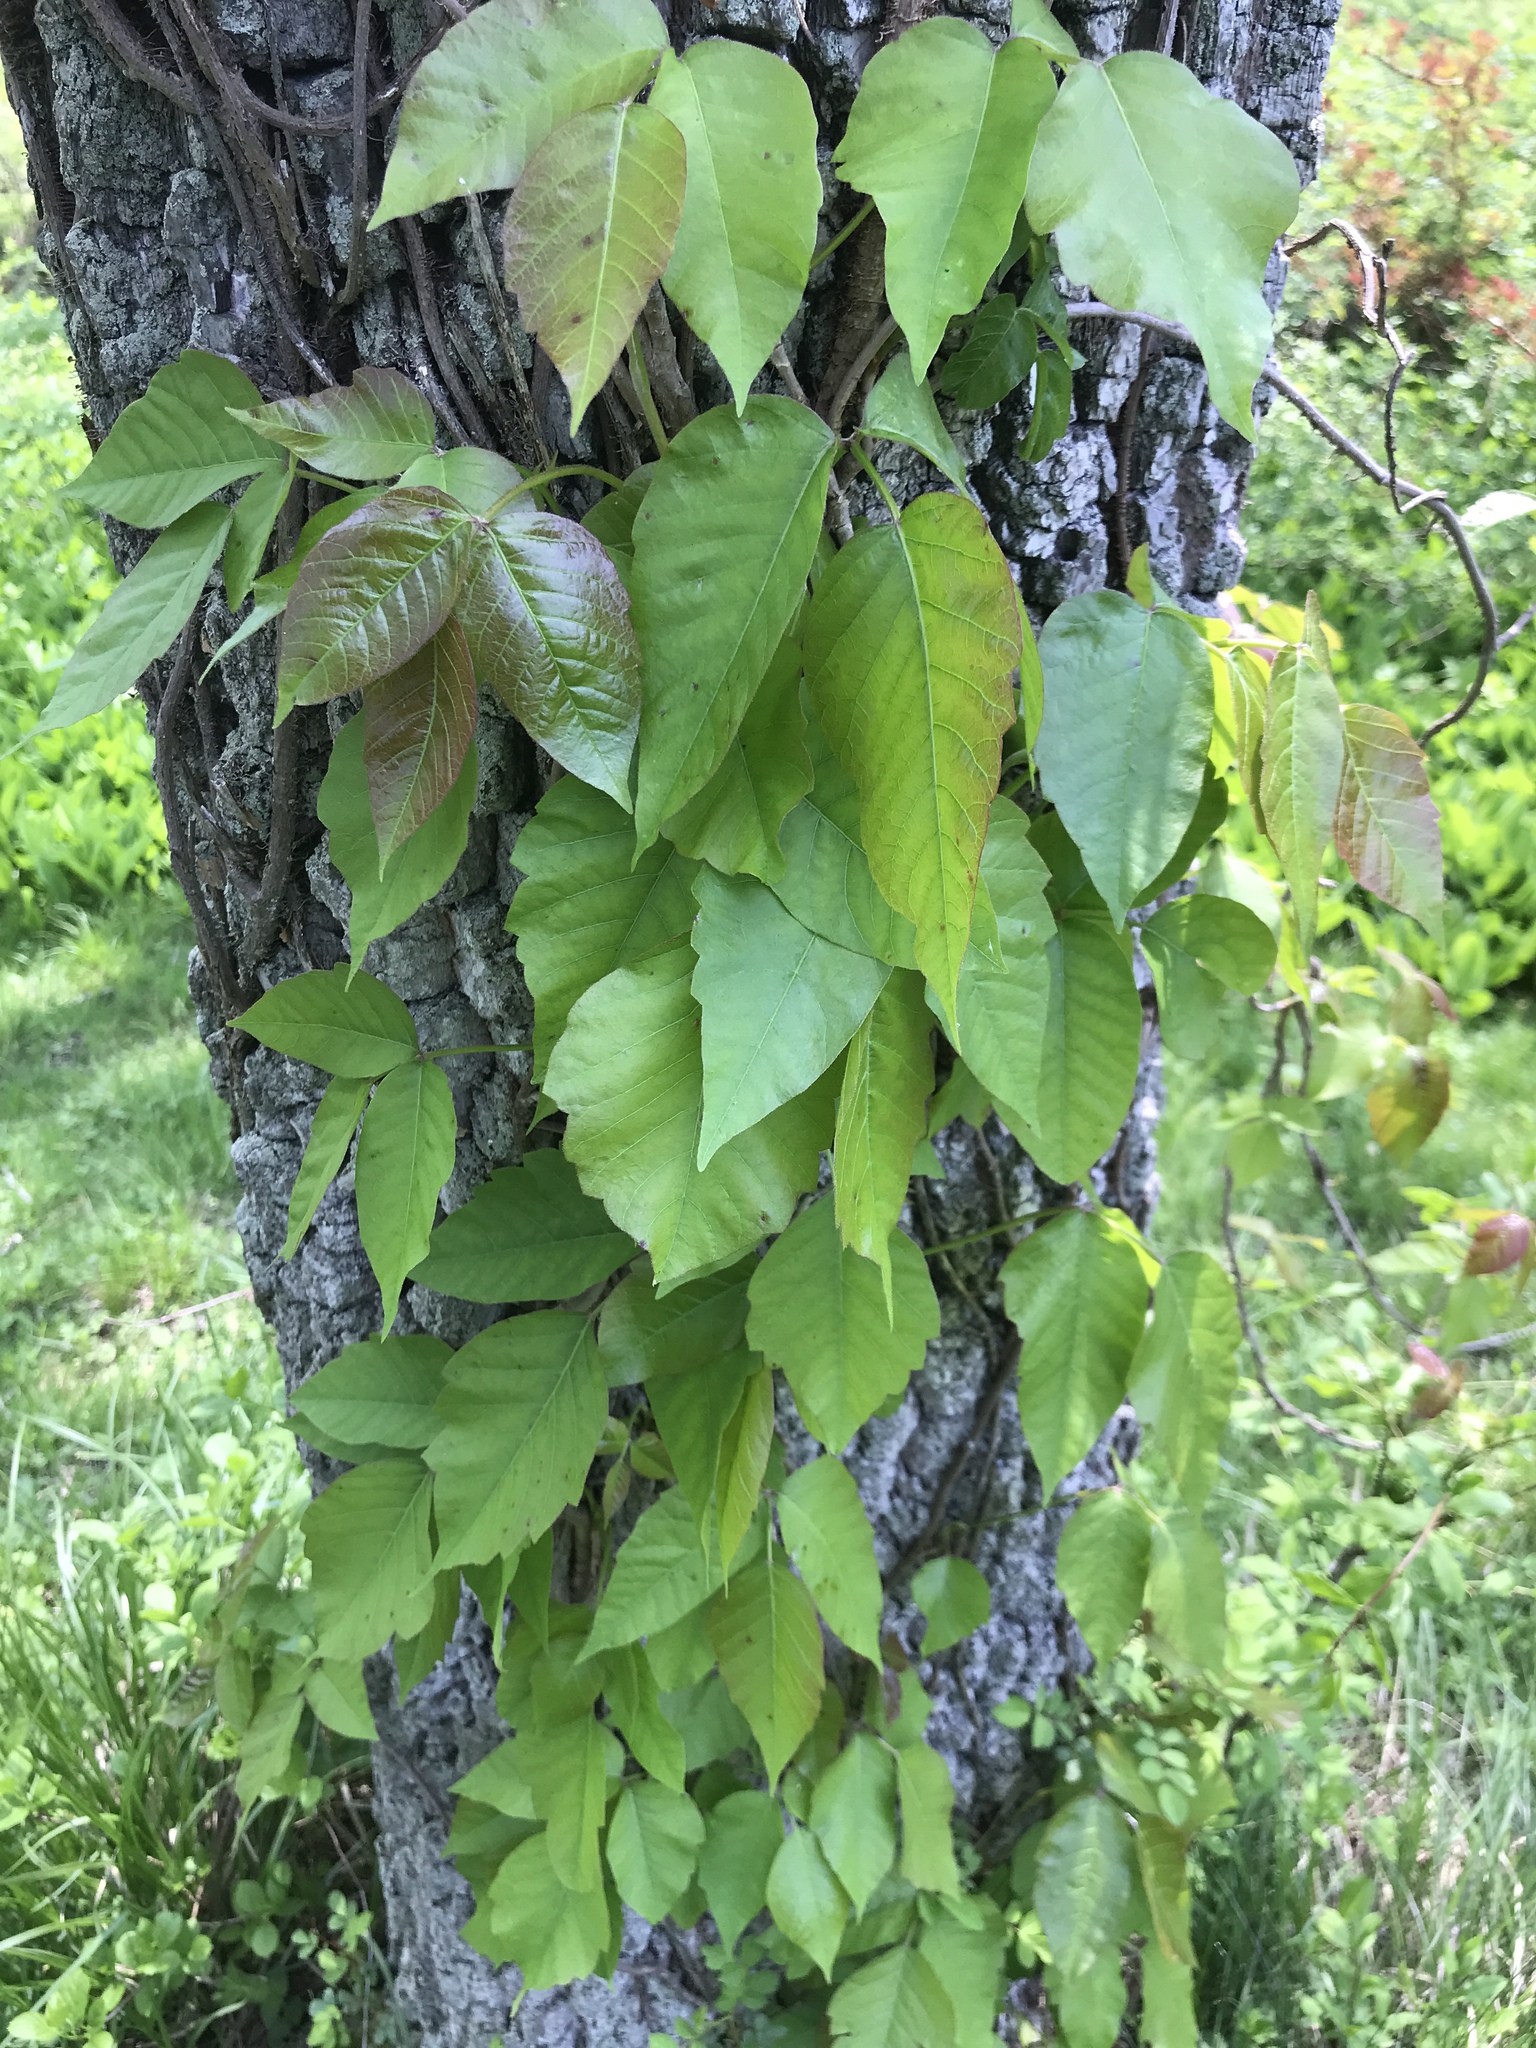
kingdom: Plantae
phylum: Tracheophyta
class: Magnoliopsida
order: Sapindales
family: Anacardiaceae
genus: Toxicodendron
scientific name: Toxicodendron radicans
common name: Poison ivy
